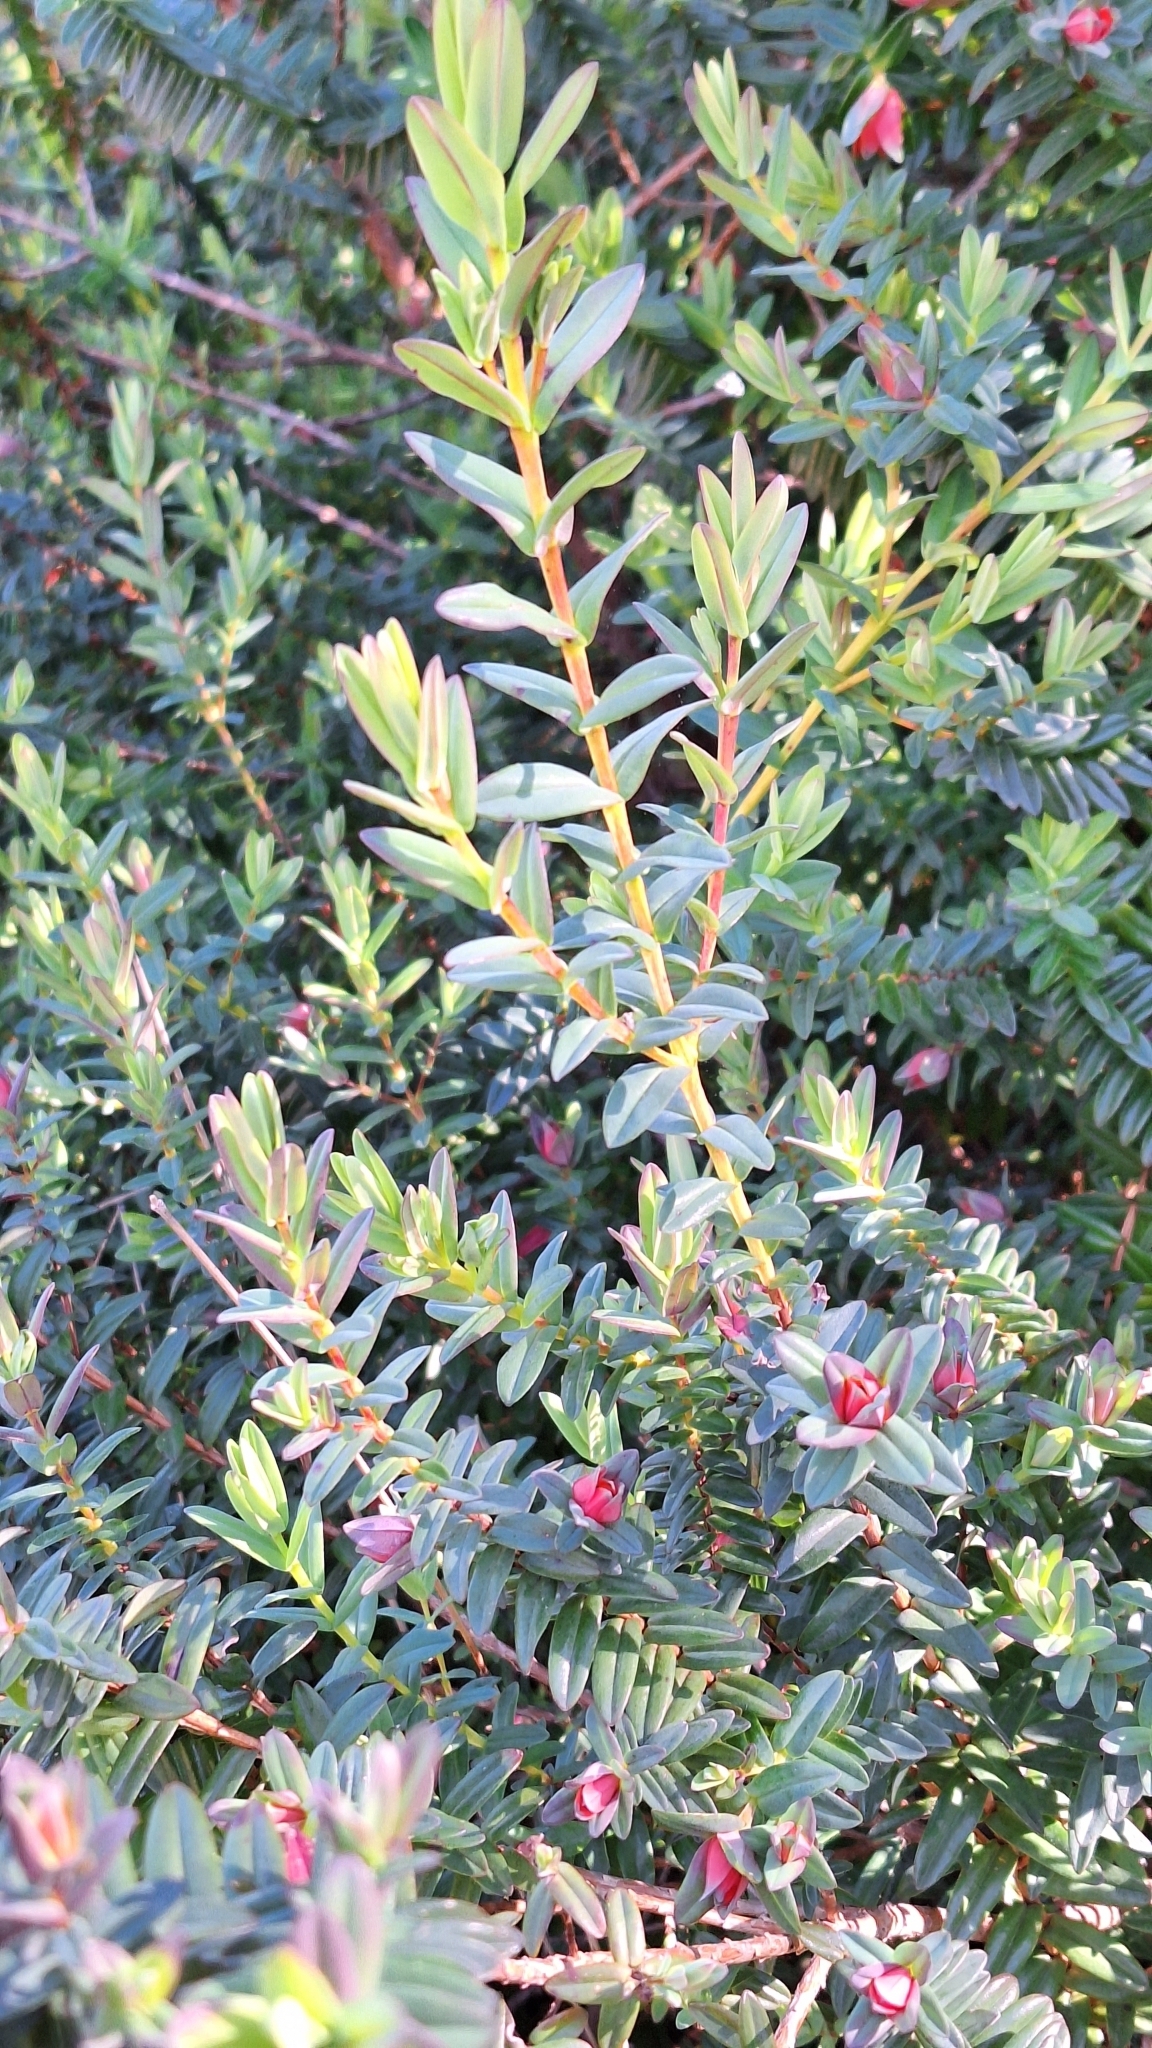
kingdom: Plantae
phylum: Tracheophyta
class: Magnoliopsida
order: Myrtales
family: Myrtaceae
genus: Darwinia
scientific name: Darwinia citriodora
